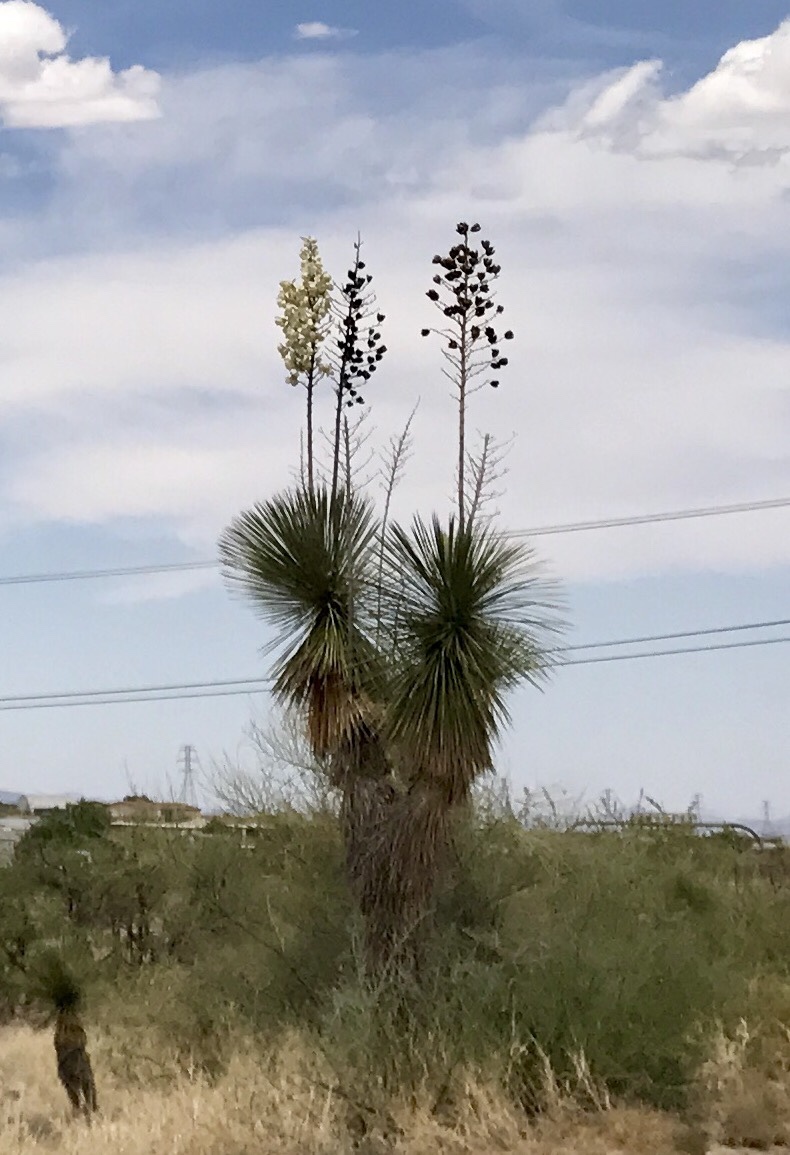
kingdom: Plantae
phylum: Tracheophyta
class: Liliopsida
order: Asparagales
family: Asparagaceae
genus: Yucca
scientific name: Yucca elata
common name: Palmella
